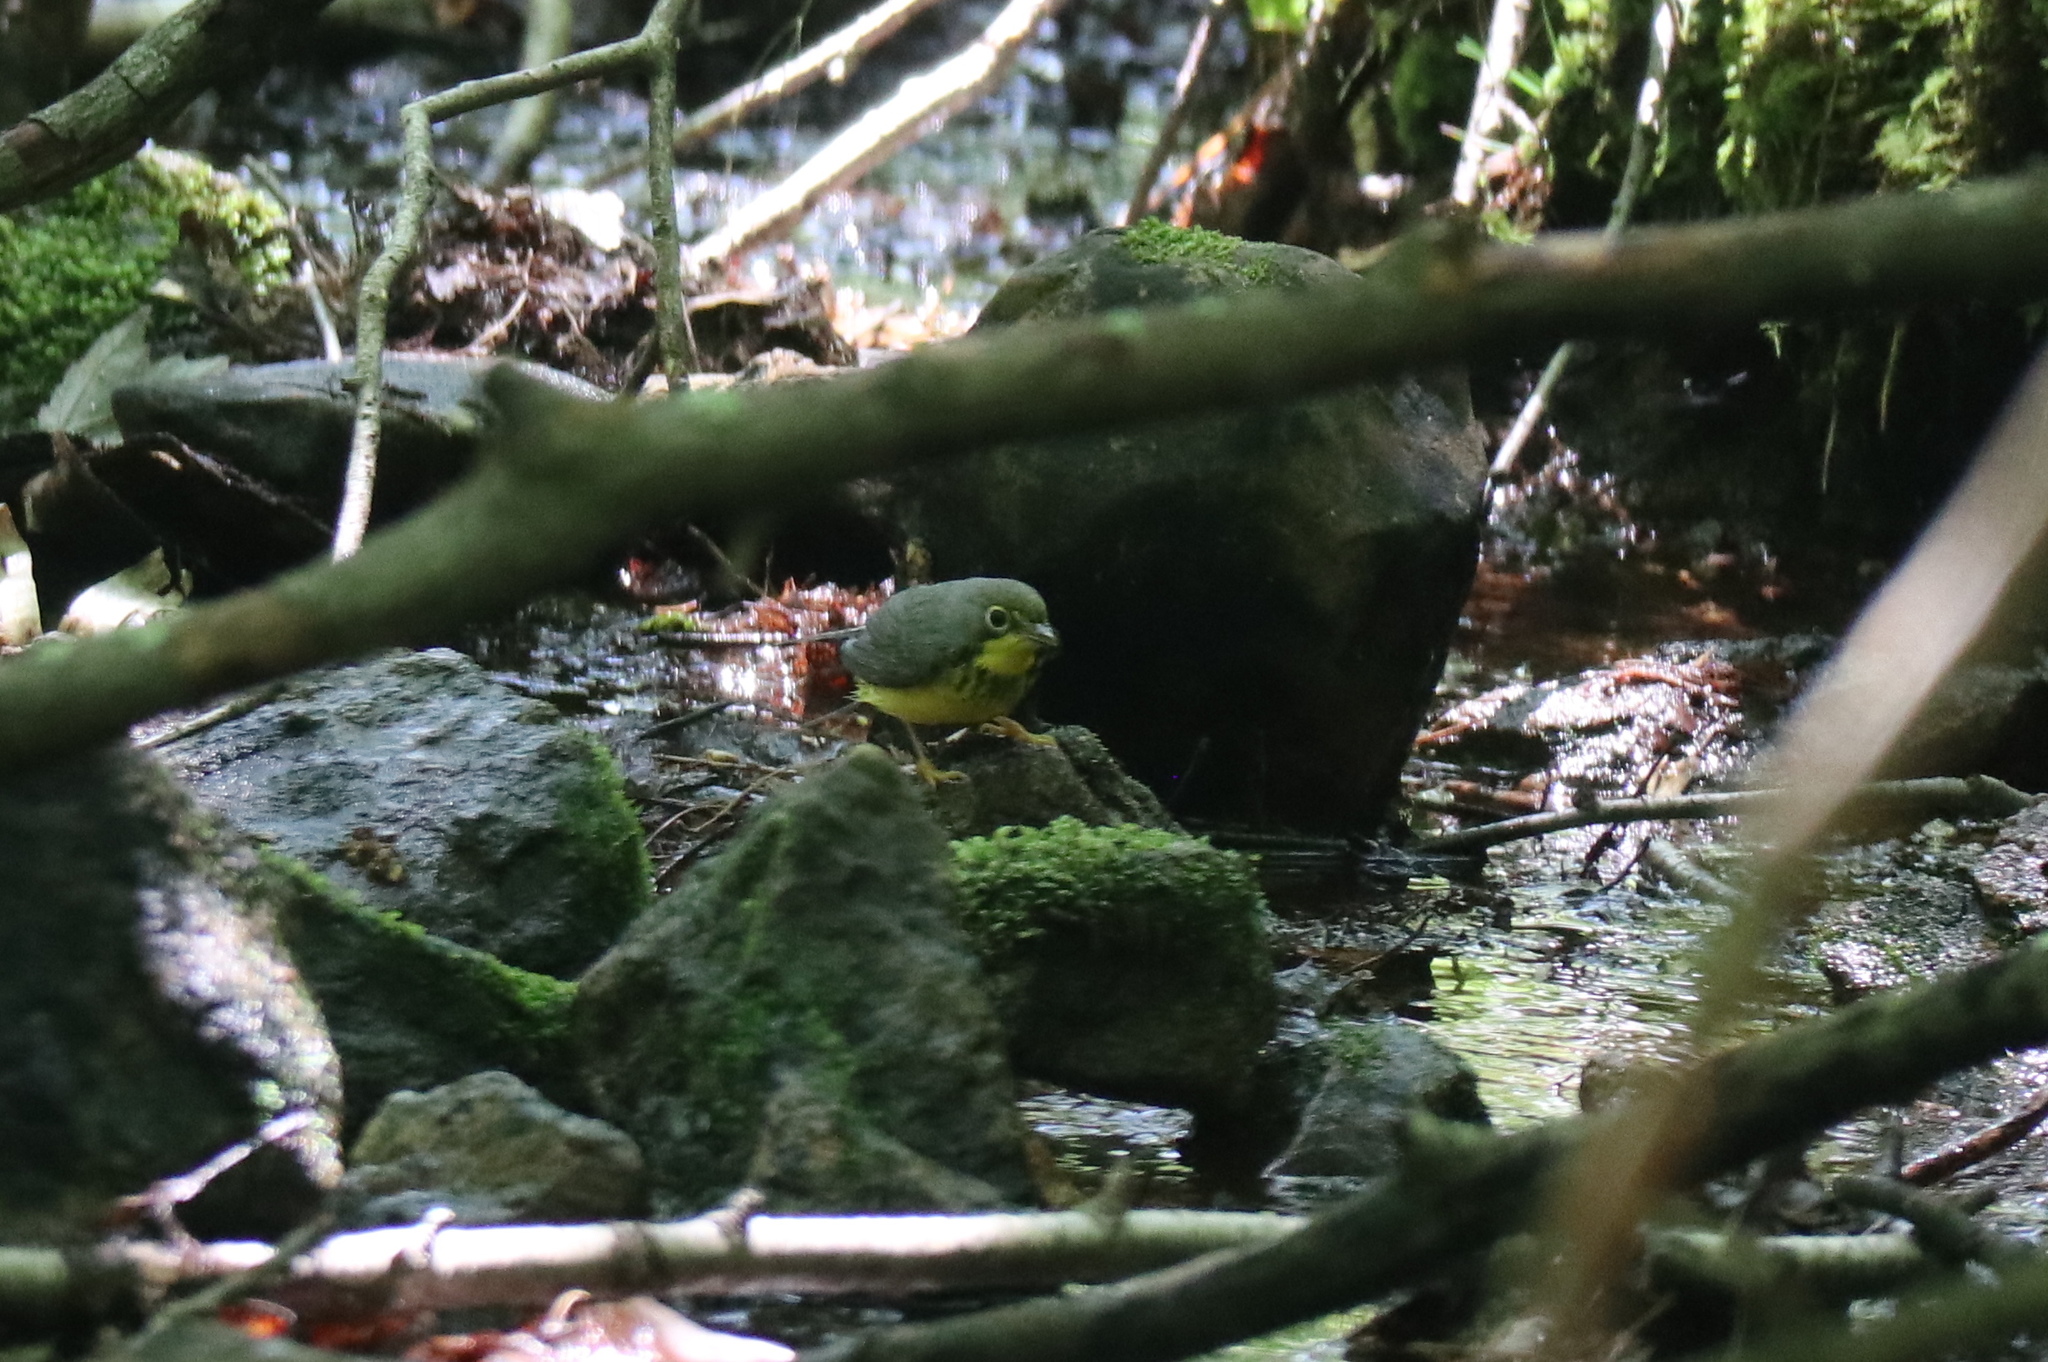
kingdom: Animalia
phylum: Chordata
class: Aves
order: Passeriformes
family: Parulidae
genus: Cardellina
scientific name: Cardellina canadensis
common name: Canada warbler
